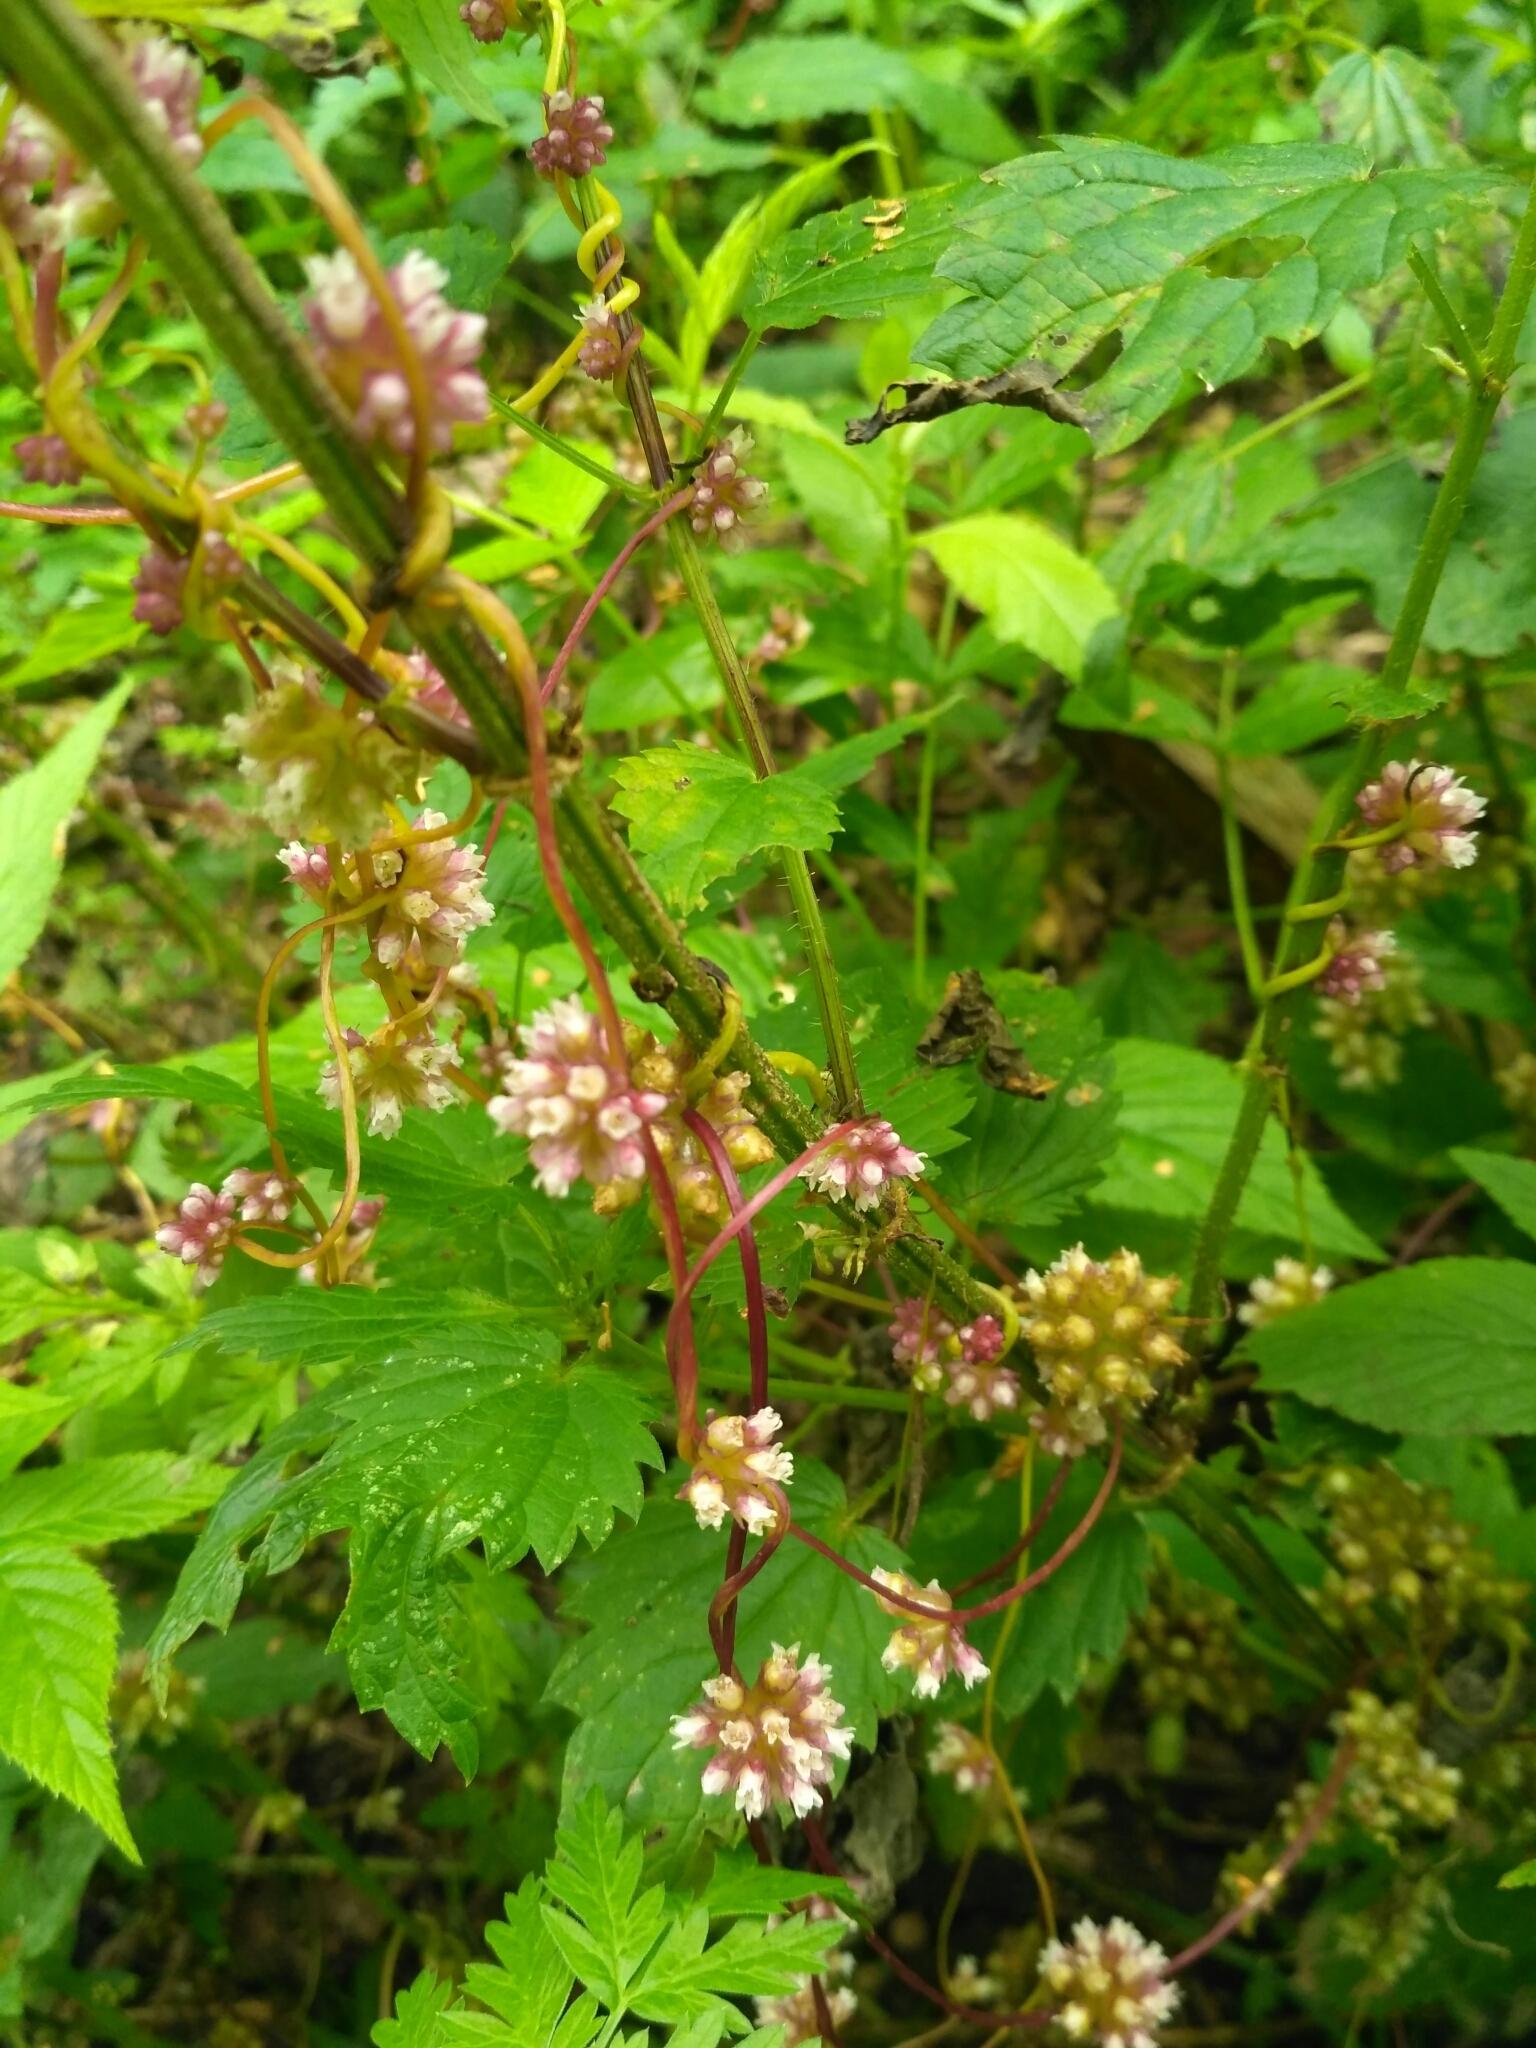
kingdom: Plantae
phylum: Tracheophyta
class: Magnoliopsida
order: Solanales
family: Convolvulaceae
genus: Cuscuta
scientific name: Cuscuta europaea
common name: Greater dodder
